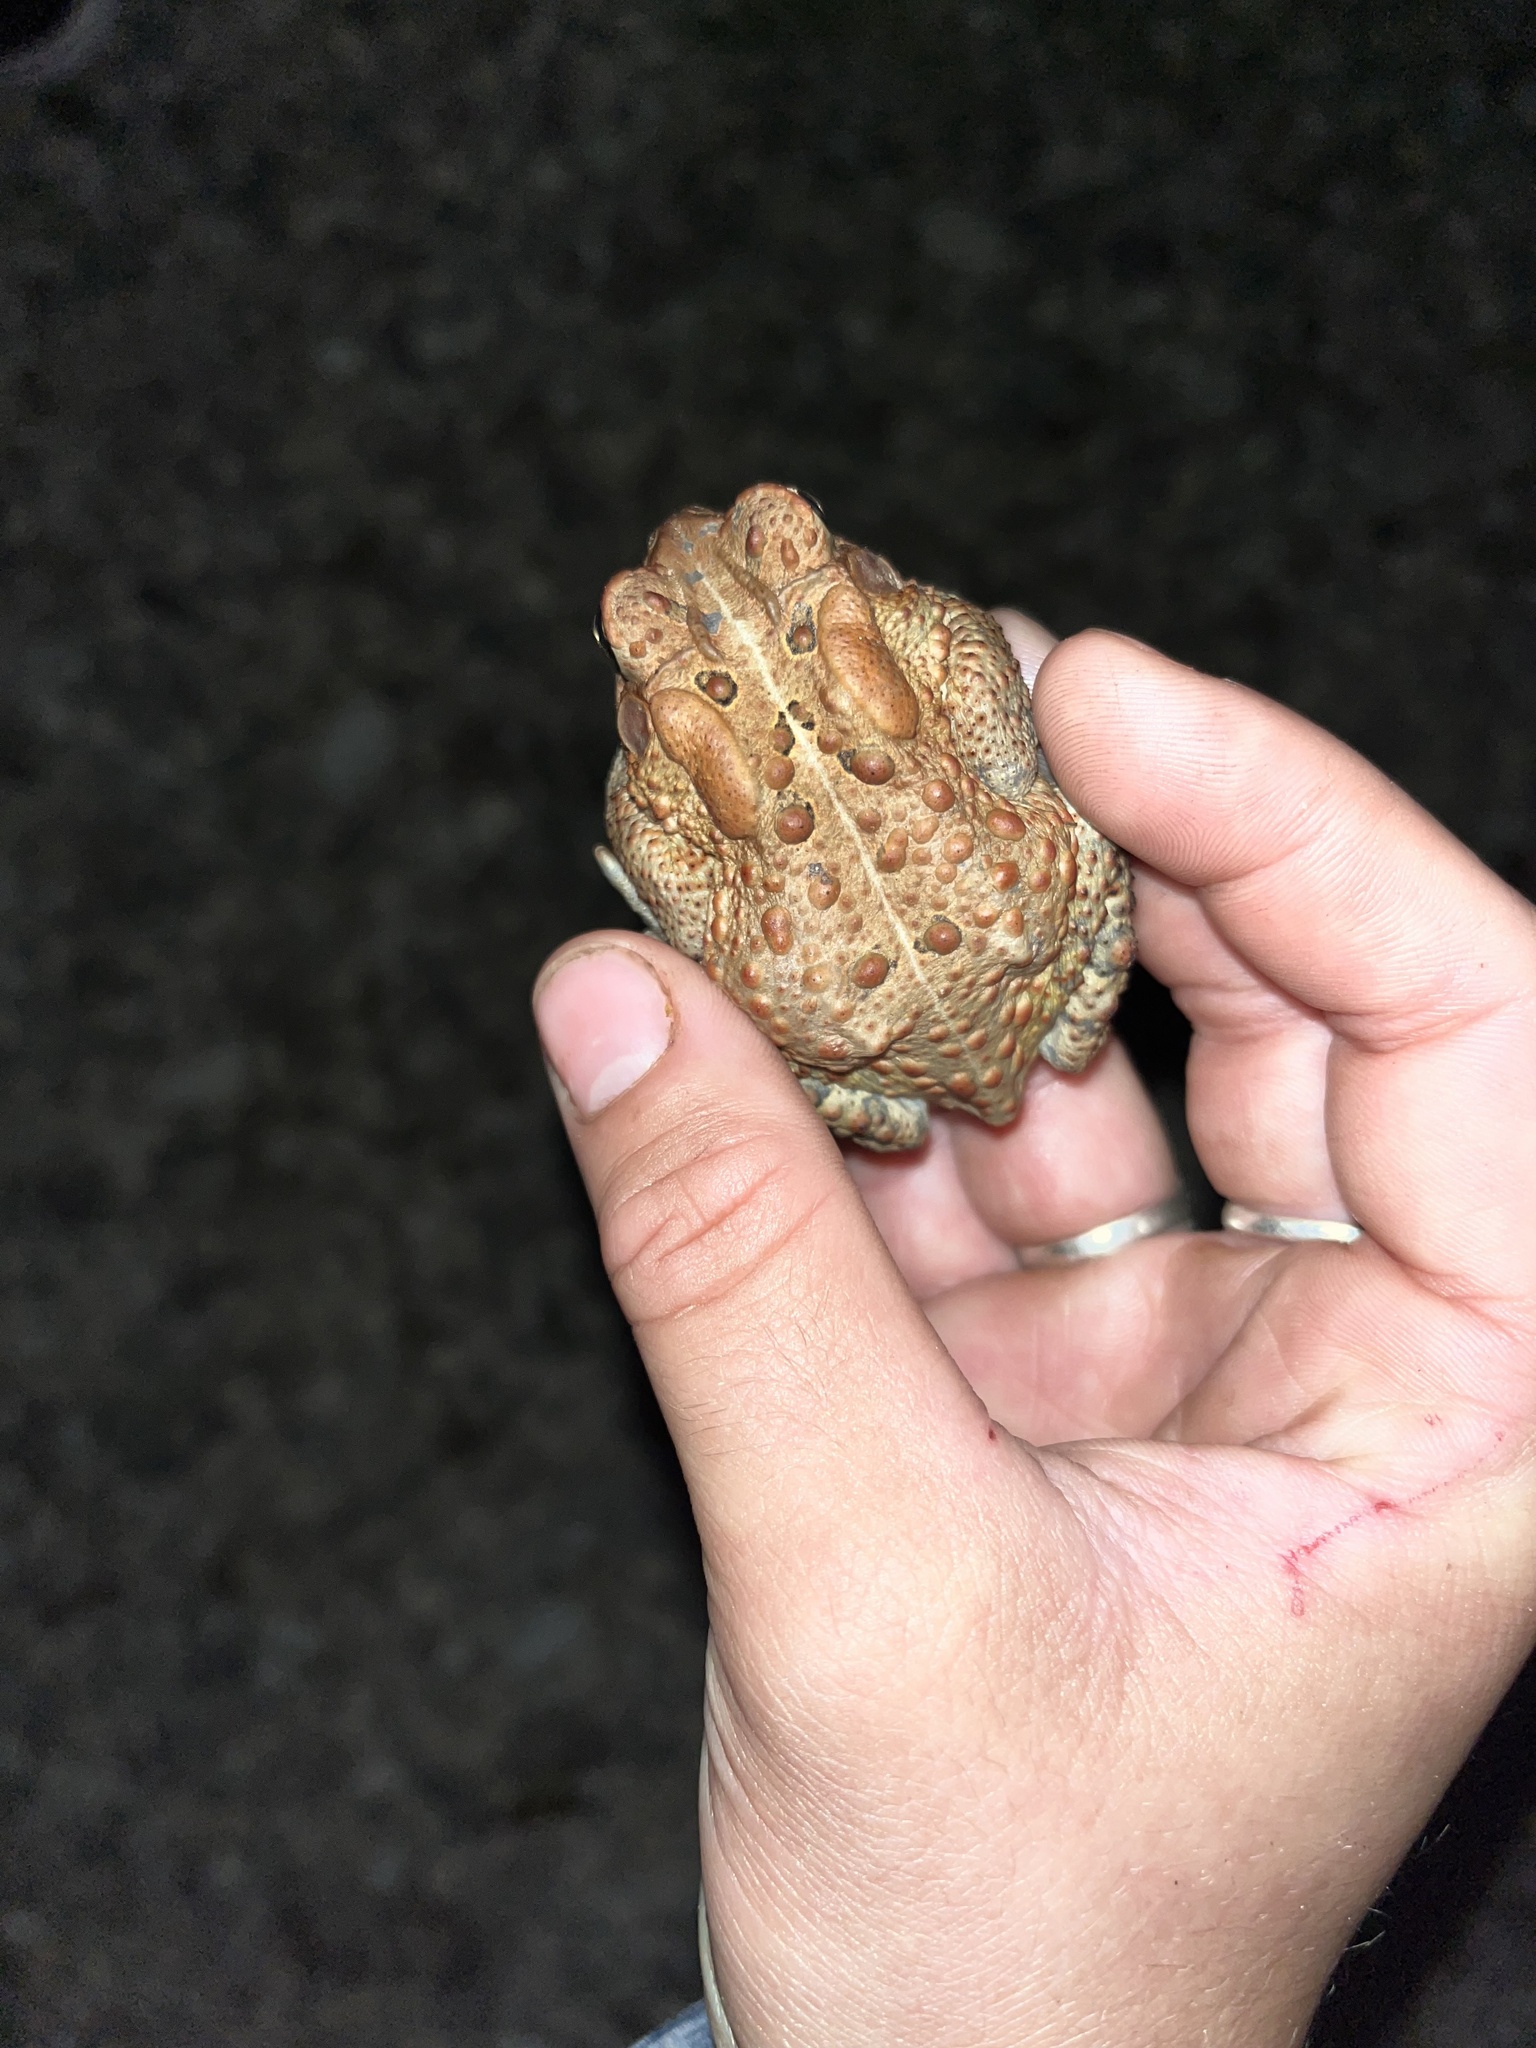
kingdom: Animalia
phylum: Chordata
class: Amphibia
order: Anura
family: Bufonidae
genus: Anaxyrus
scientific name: Anaxyrus americanus
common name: American toad
